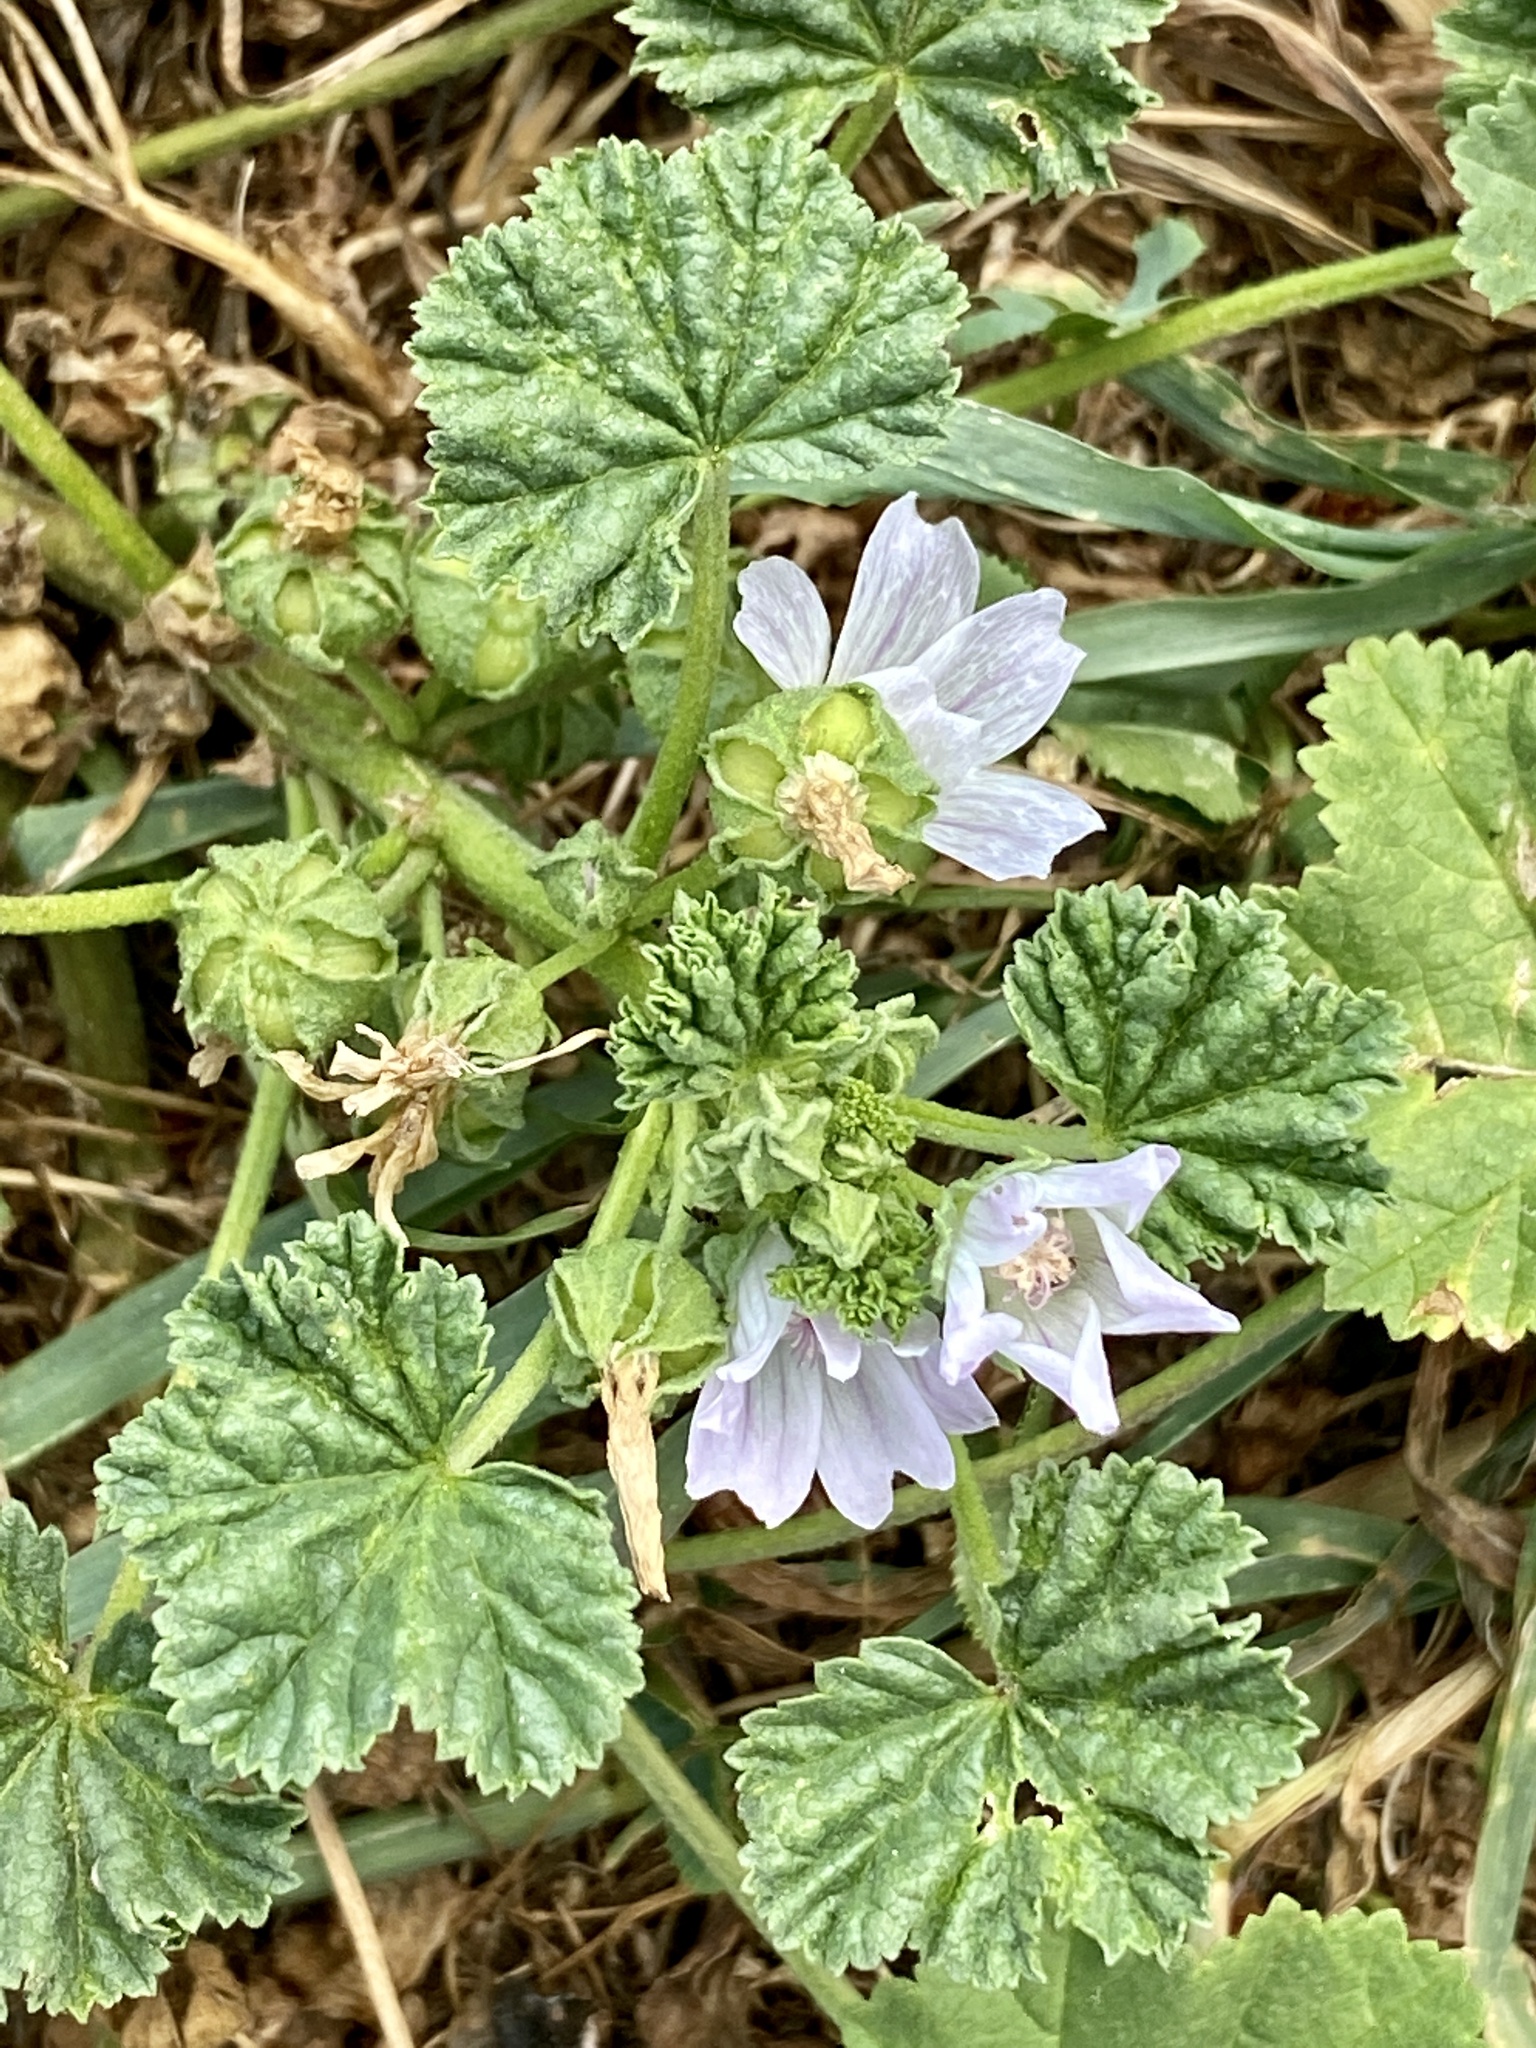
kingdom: Plantae
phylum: Tracheophyta
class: Magnoliopsida
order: Malvales
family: Malvaceae
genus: Malva
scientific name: Malva neglecta
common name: Common mallow
